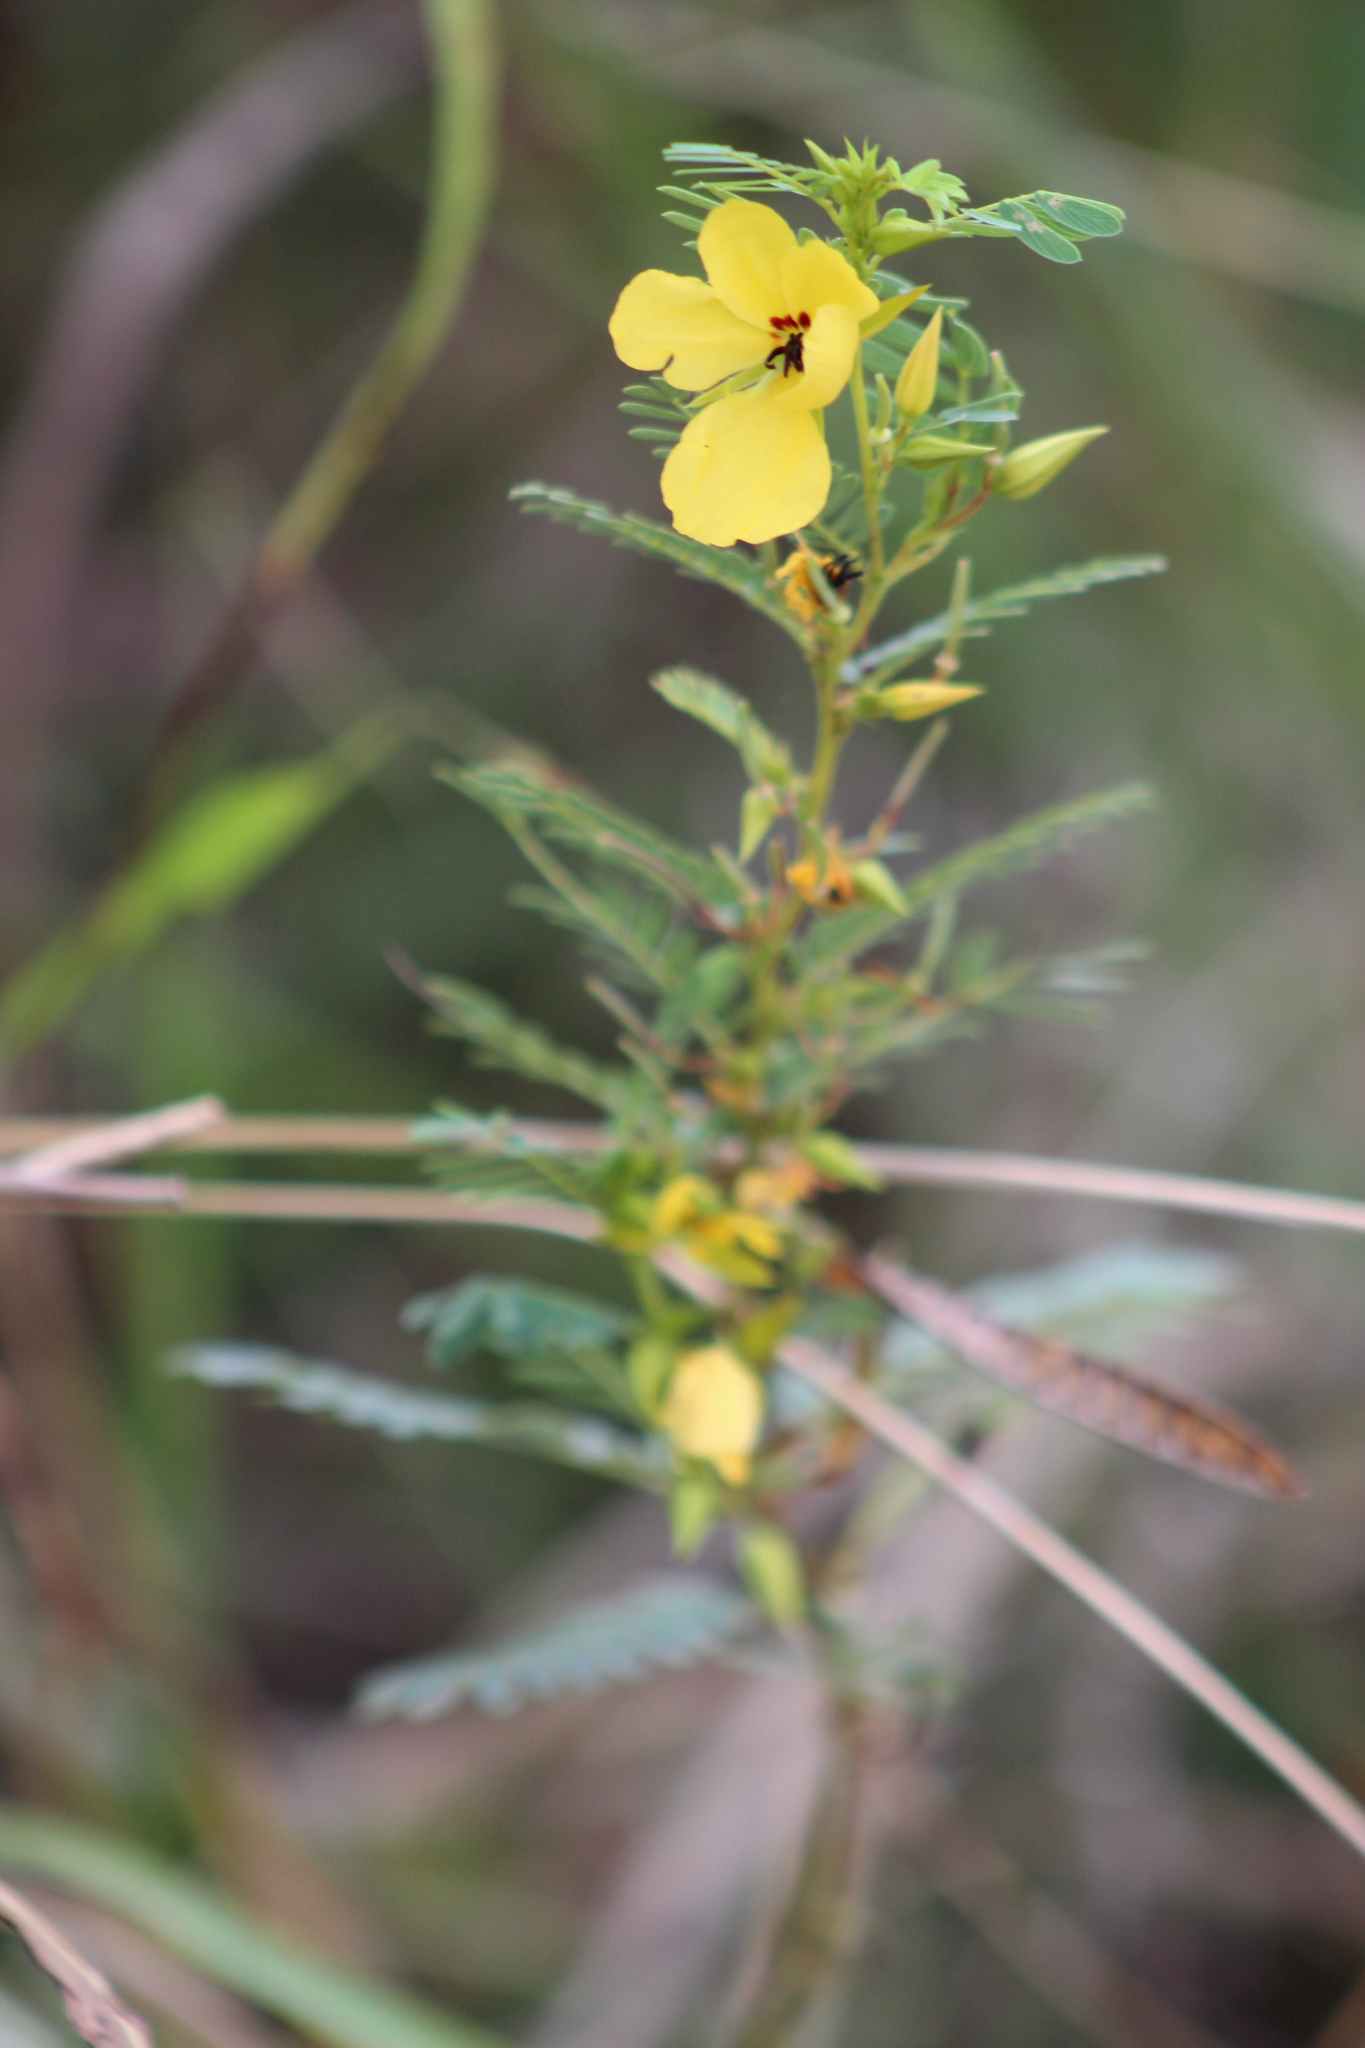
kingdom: Plantae
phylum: Tracheophyta
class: Magnoliopsida
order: Fabales
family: Fabaceae
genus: Chamaecrista
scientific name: Chamaecrista fasciculata
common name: Golden cassia
